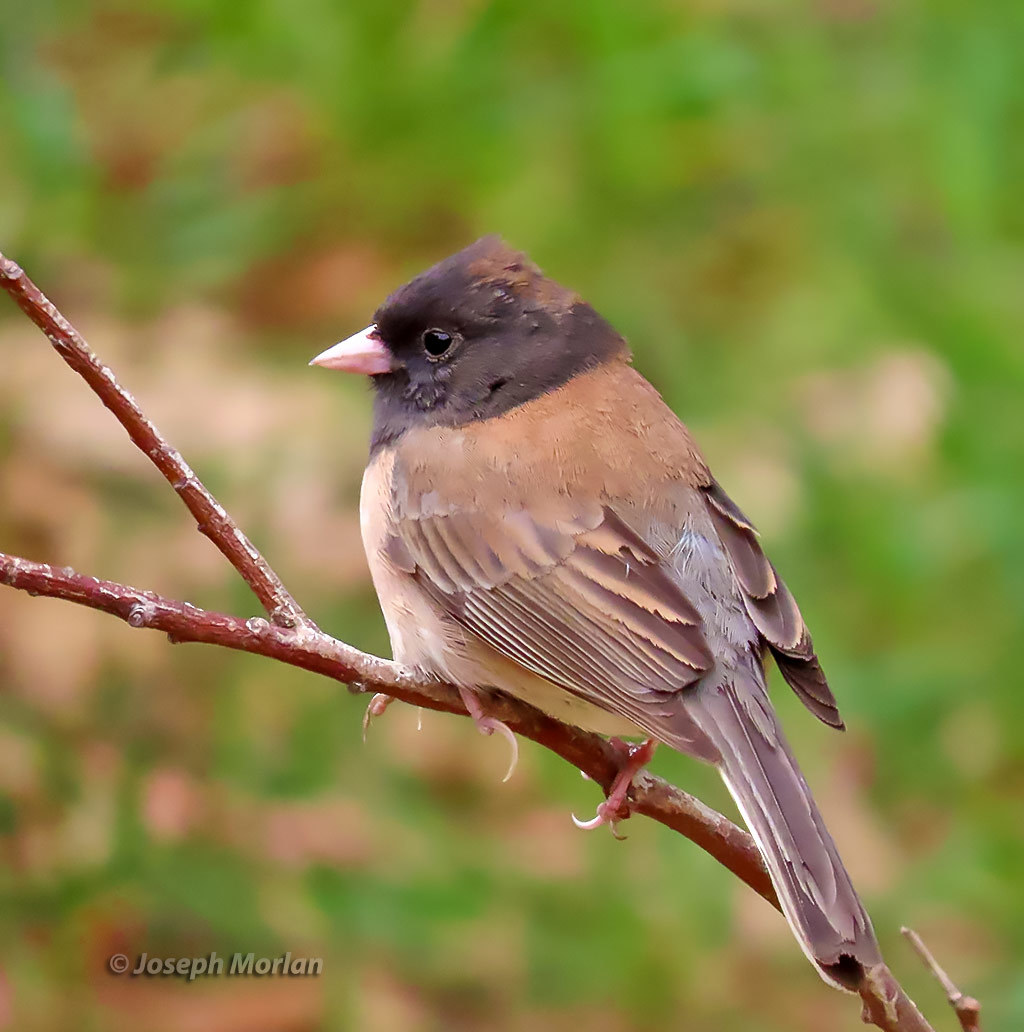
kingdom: Animalia
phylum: Chordata
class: Aves
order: Passeriformes
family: Passerellidae
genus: Junco
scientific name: Junco hyemalis
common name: Dark-eyed junco
